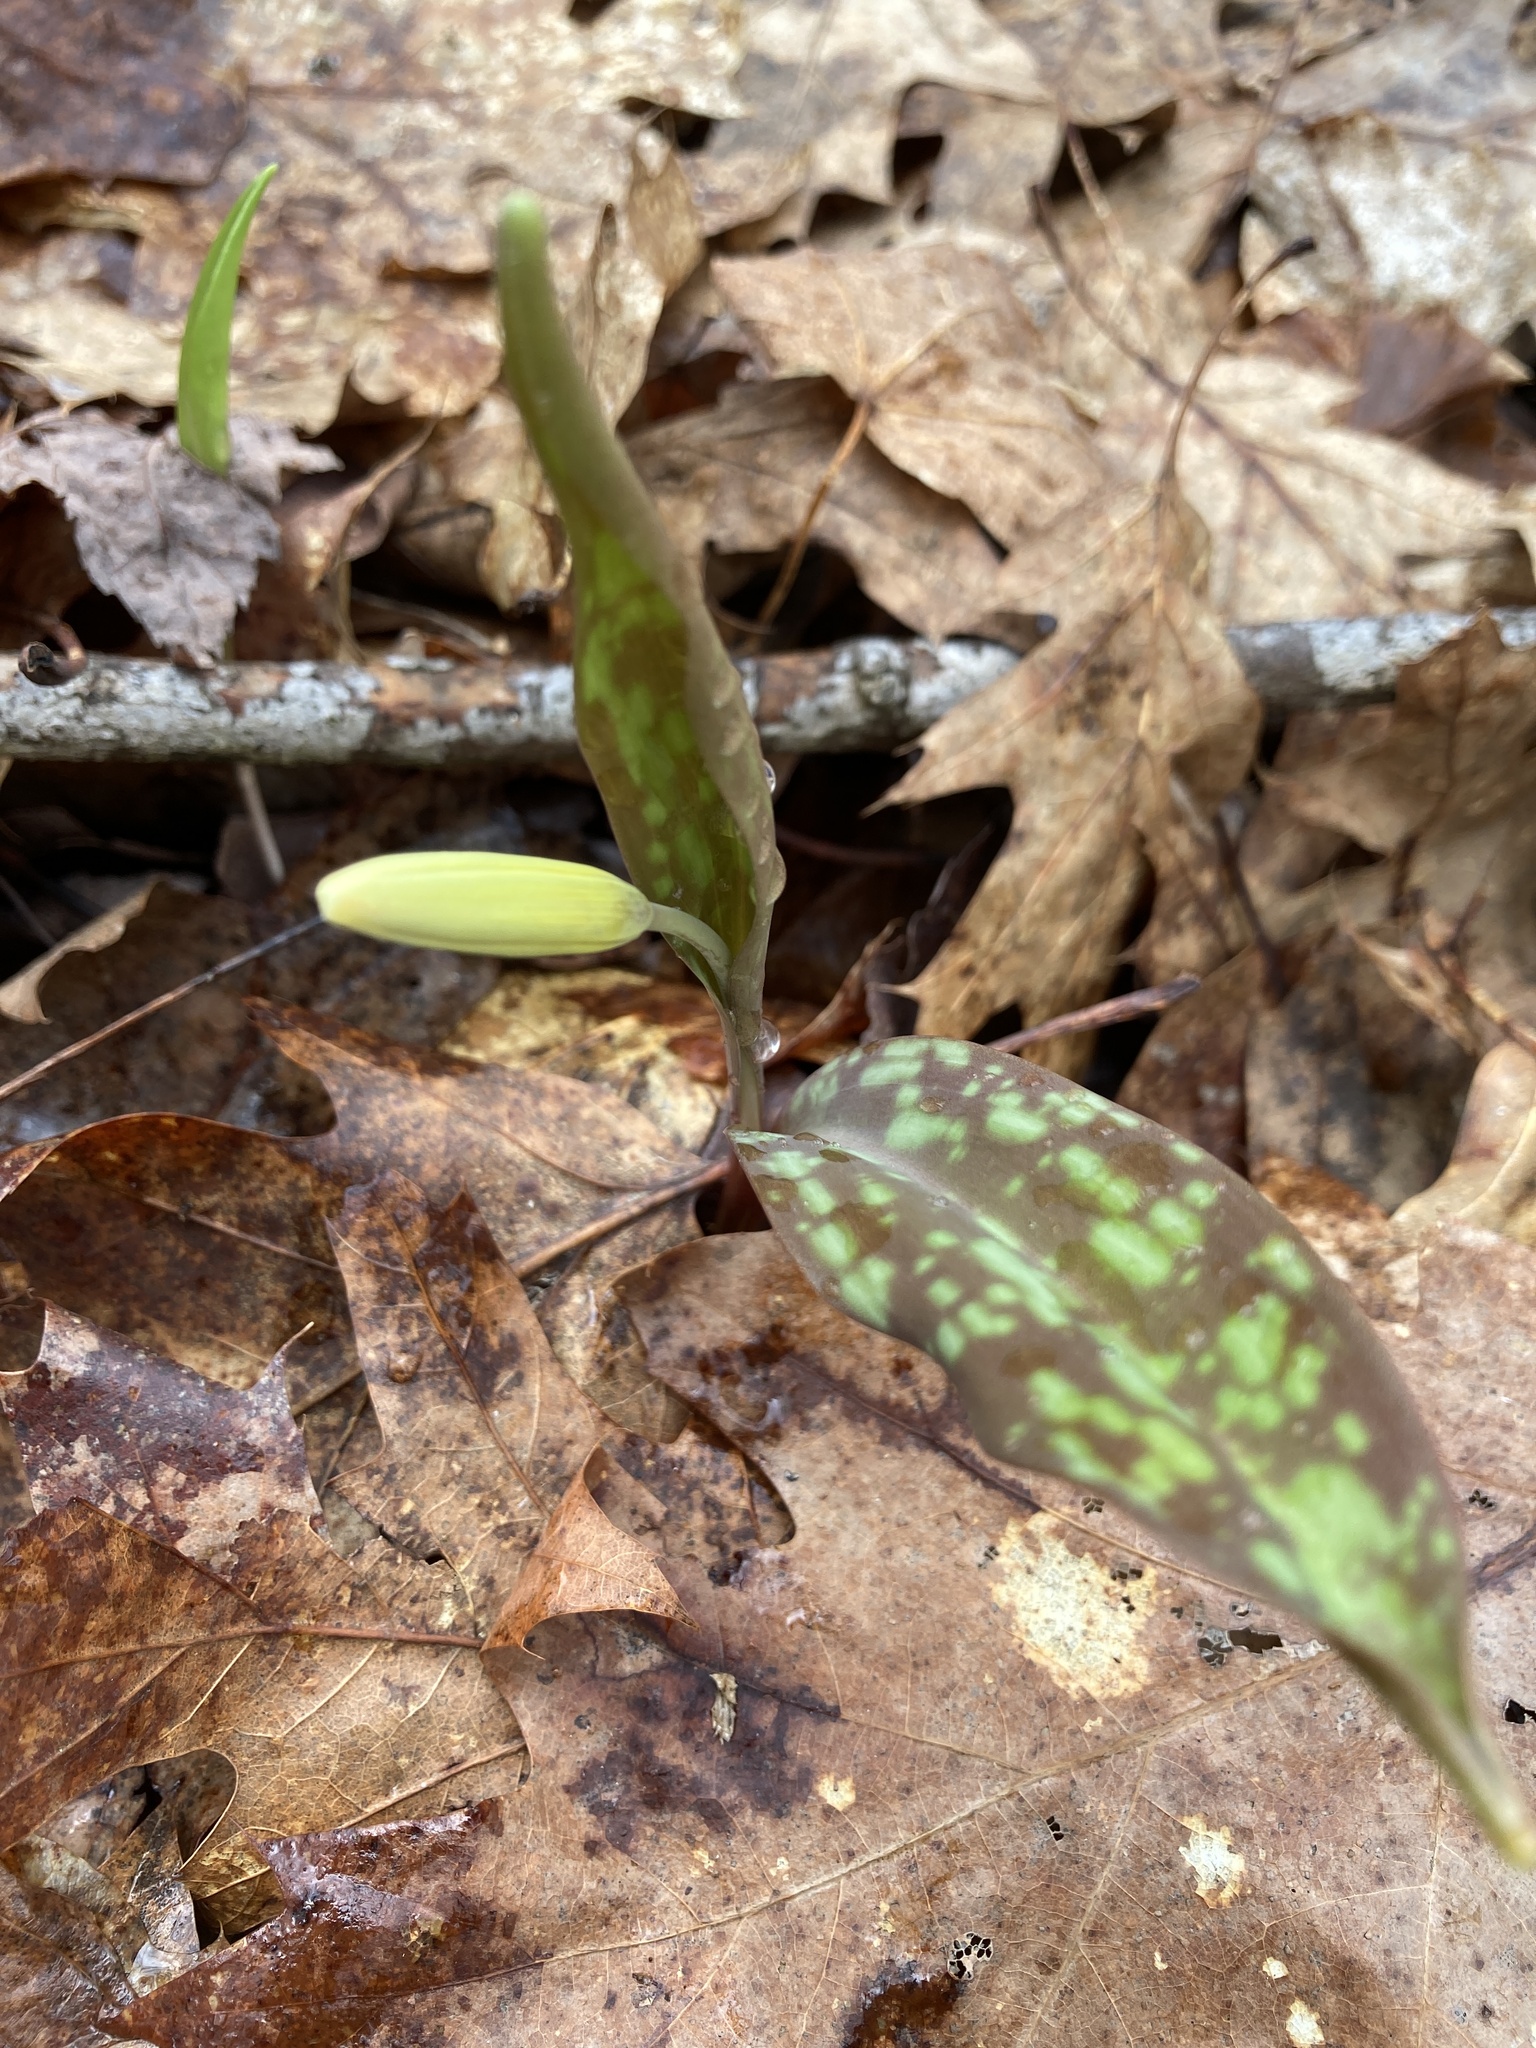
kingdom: Plantae
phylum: Tracheophyta
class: Liliopsida
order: Liliales
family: Liliaceae
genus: Erythronium
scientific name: Erythronium americanum
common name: Yellow adder's-tongue
